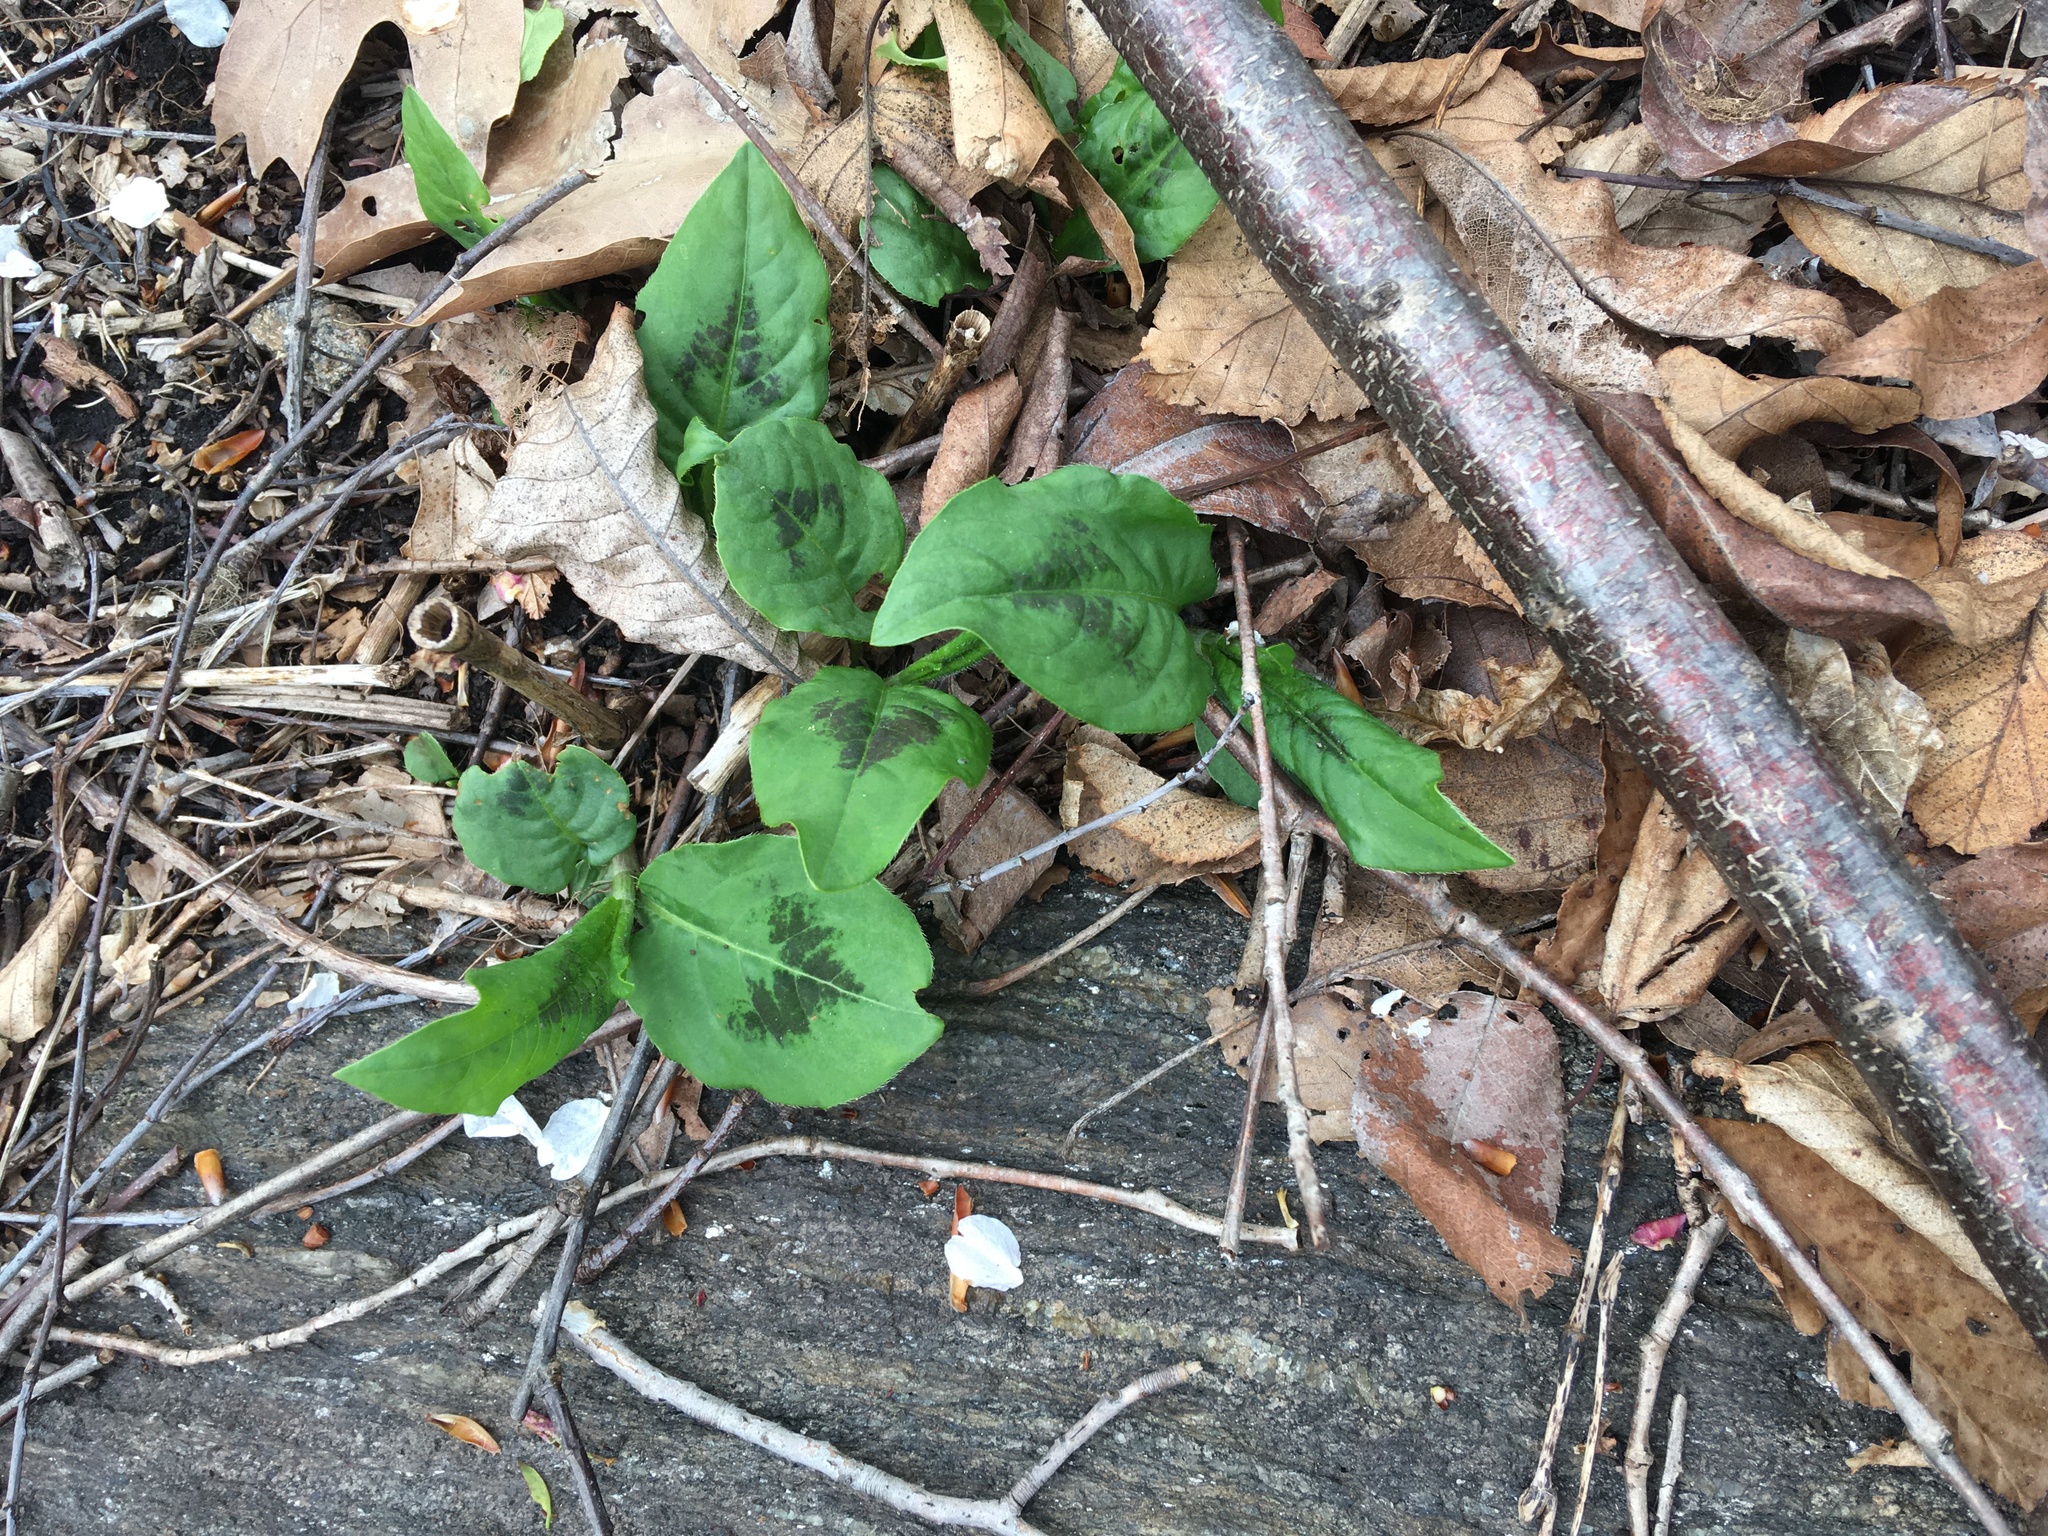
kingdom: Plantae
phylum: Tracheophyta
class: Magnoliopsida
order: Caryophyllales
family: Polygonaceae
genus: Persicaria
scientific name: Persicaria virginiana
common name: Jumpseed
